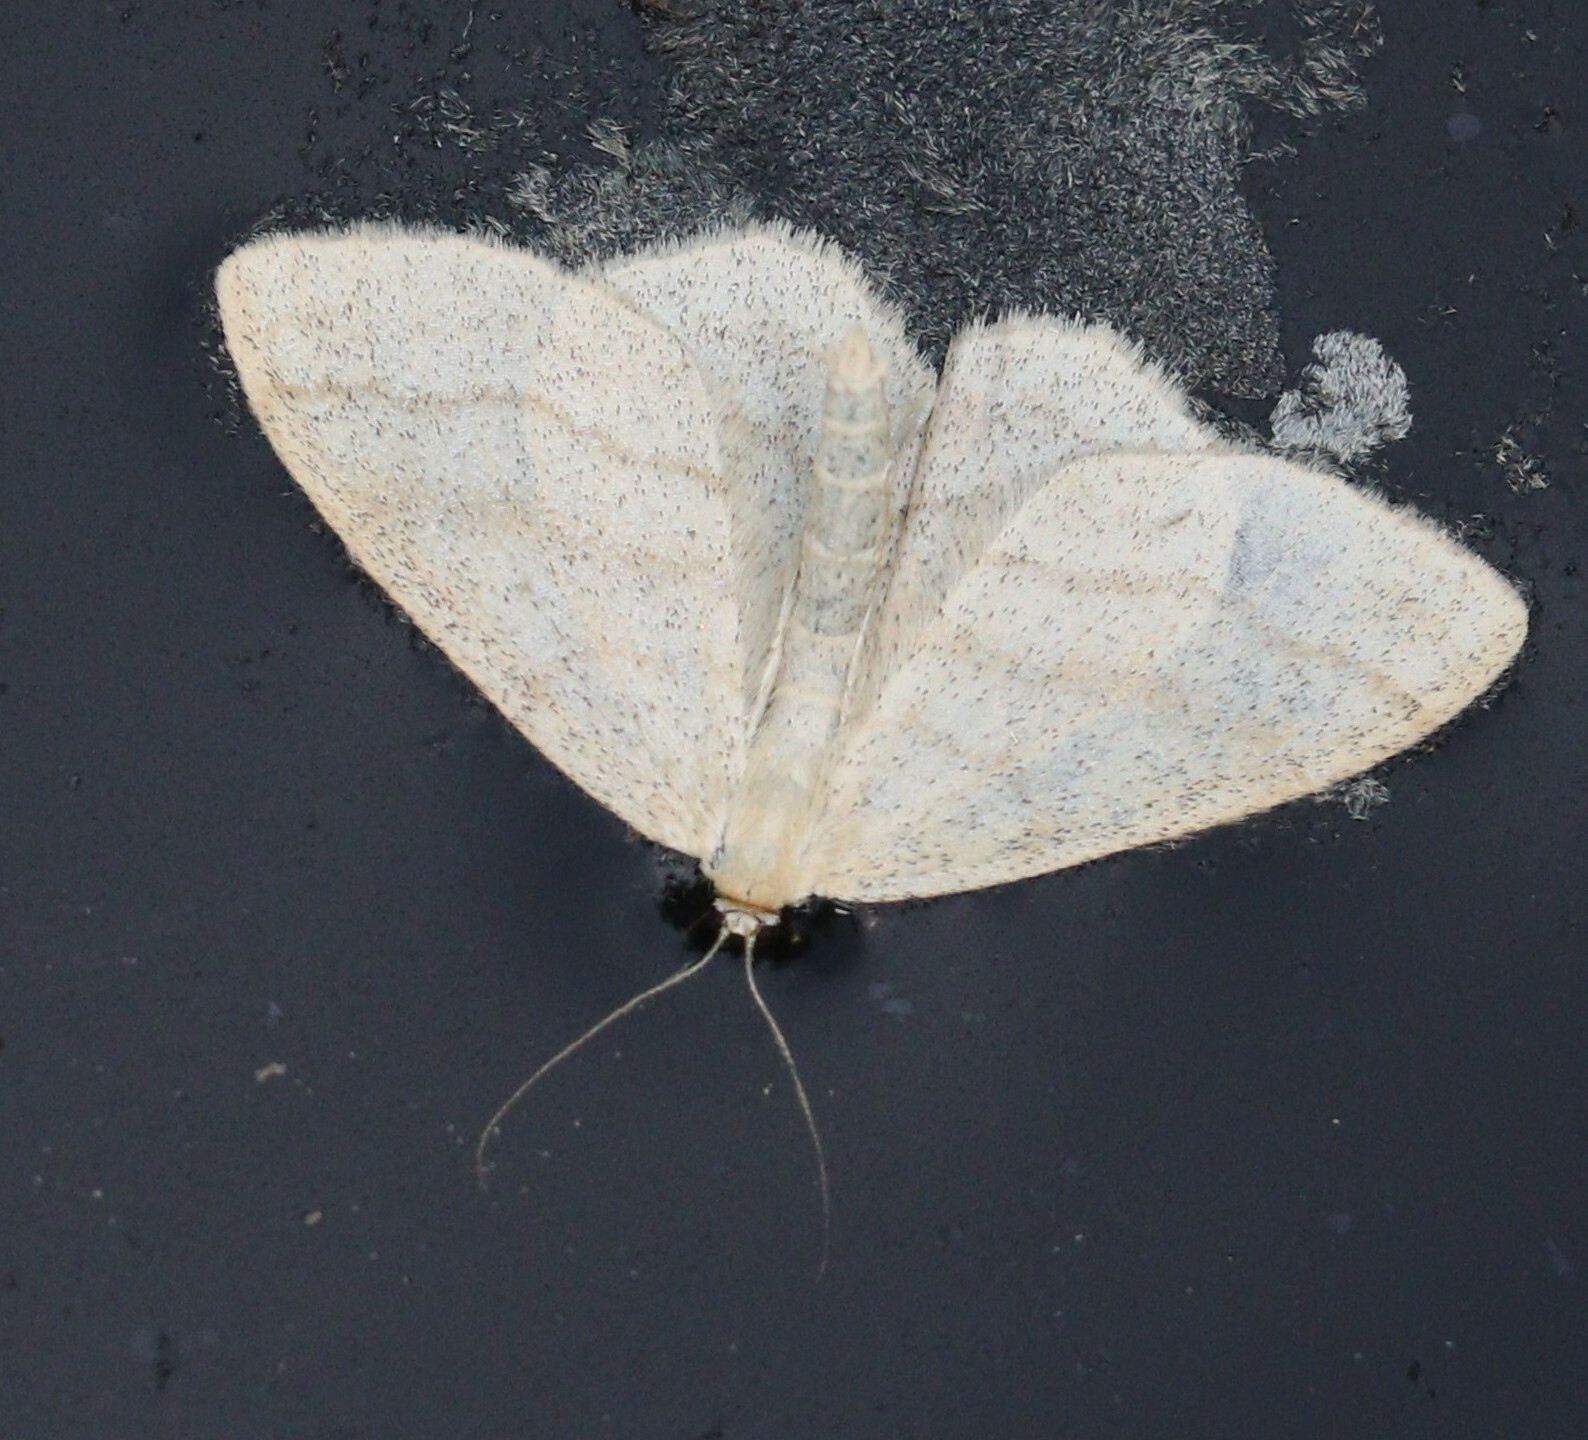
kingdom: Animalia
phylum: Arthropoda
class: Insecta
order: Lepidoptera
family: Geometridae
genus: Scopula
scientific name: Scopula ternata
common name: Smoky wave
